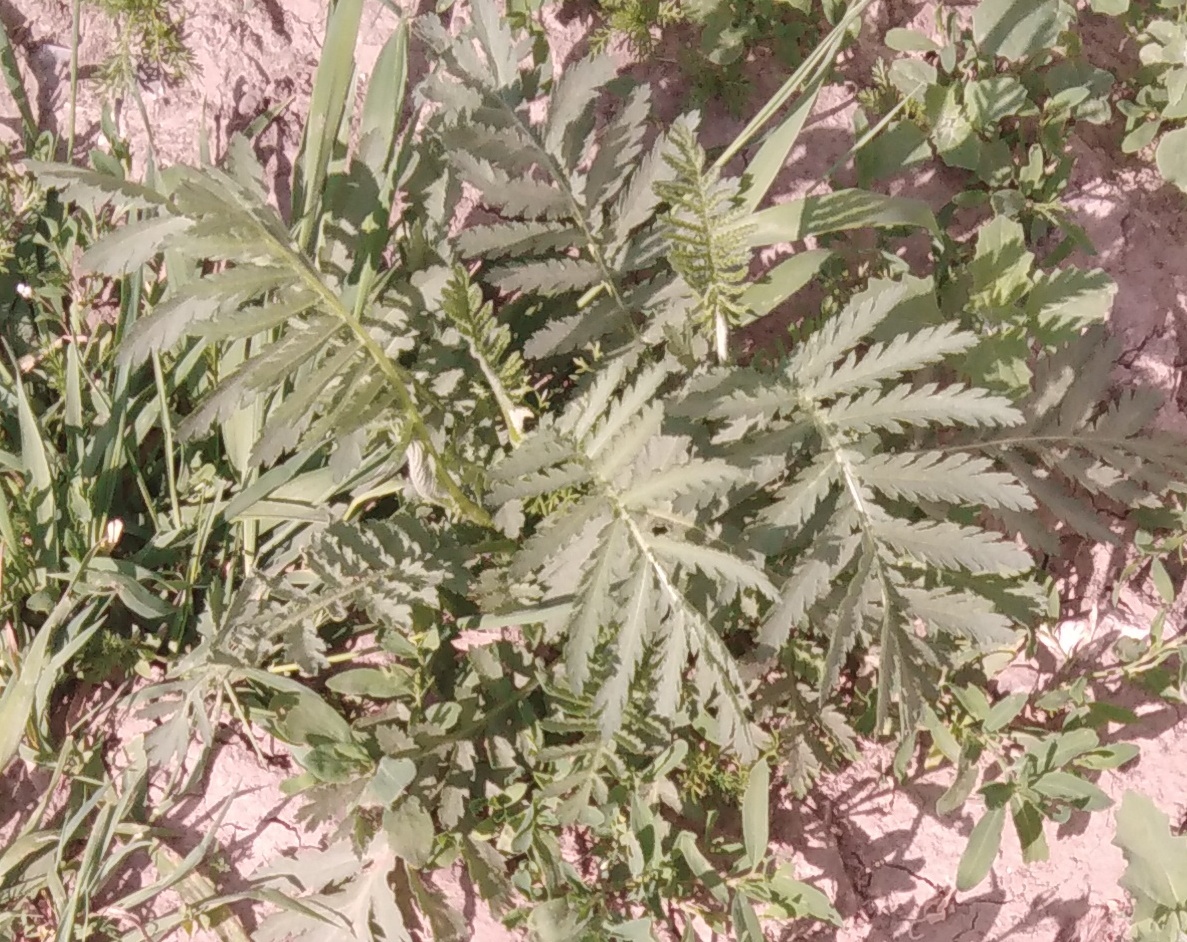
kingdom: Plantae
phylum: Tracheophyta
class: Magnoliopsida
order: Asterales
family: Asteraceae
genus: Tanacetum
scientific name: Tanacetum vulgare
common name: Common tansy
